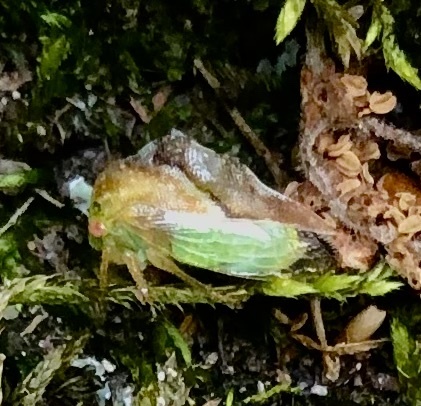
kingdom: Animalia
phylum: Arthropoda
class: Insecta
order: Hemiptera
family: Membracidae
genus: Cyrtolobus
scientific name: Cyrtolobus fenestrata
